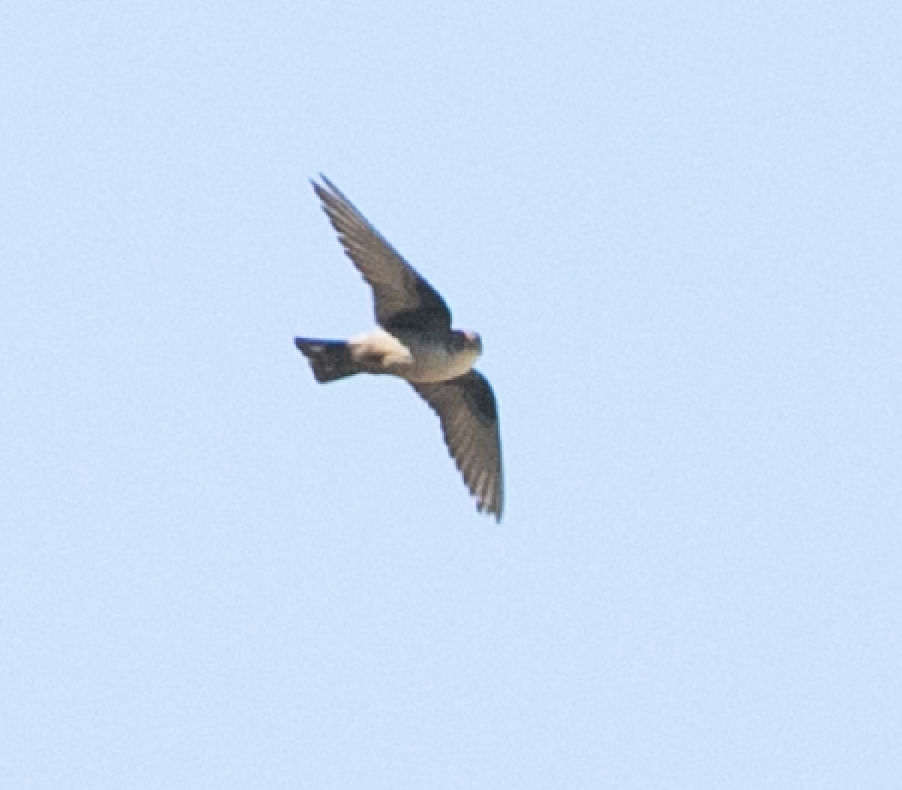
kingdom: Animalia
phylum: Chordata
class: Aves
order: Passeriformes
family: Hirundinidae
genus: Ptyonoprogne
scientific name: Ptyonoprogne rupestris
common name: Eurasian crag martin
